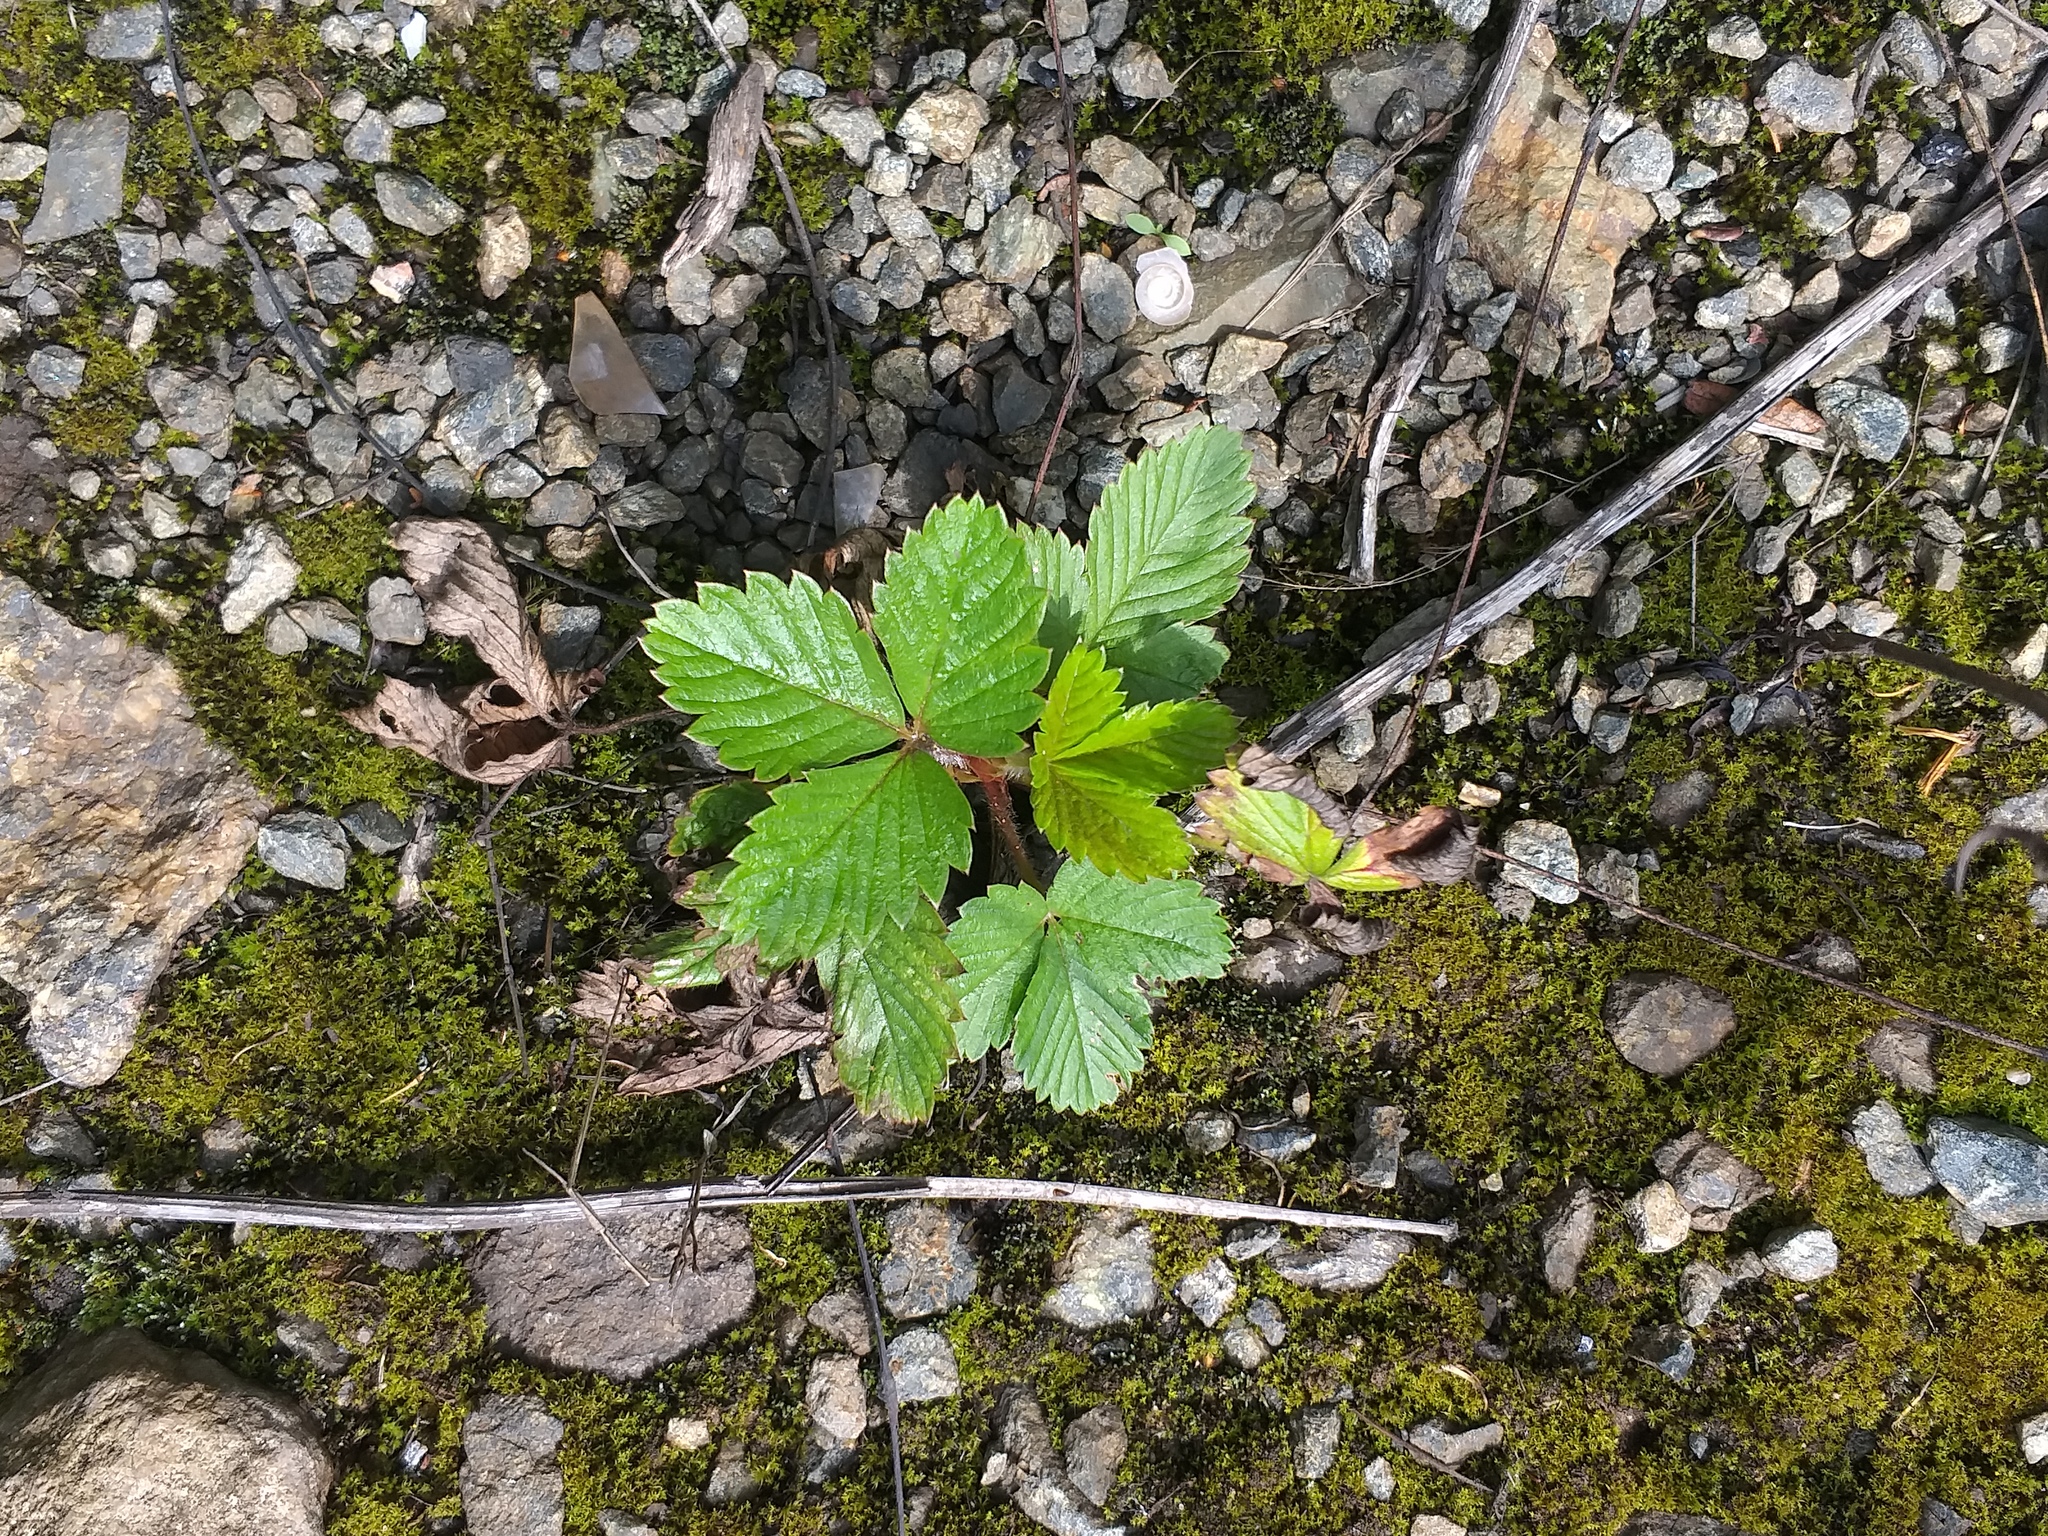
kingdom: Plantae
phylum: Tracheophyta
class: Magnoliopsida
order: Rosales
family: Rosaceae
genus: Fragaria
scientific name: Fragaria vesca
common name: Wild strawberry
